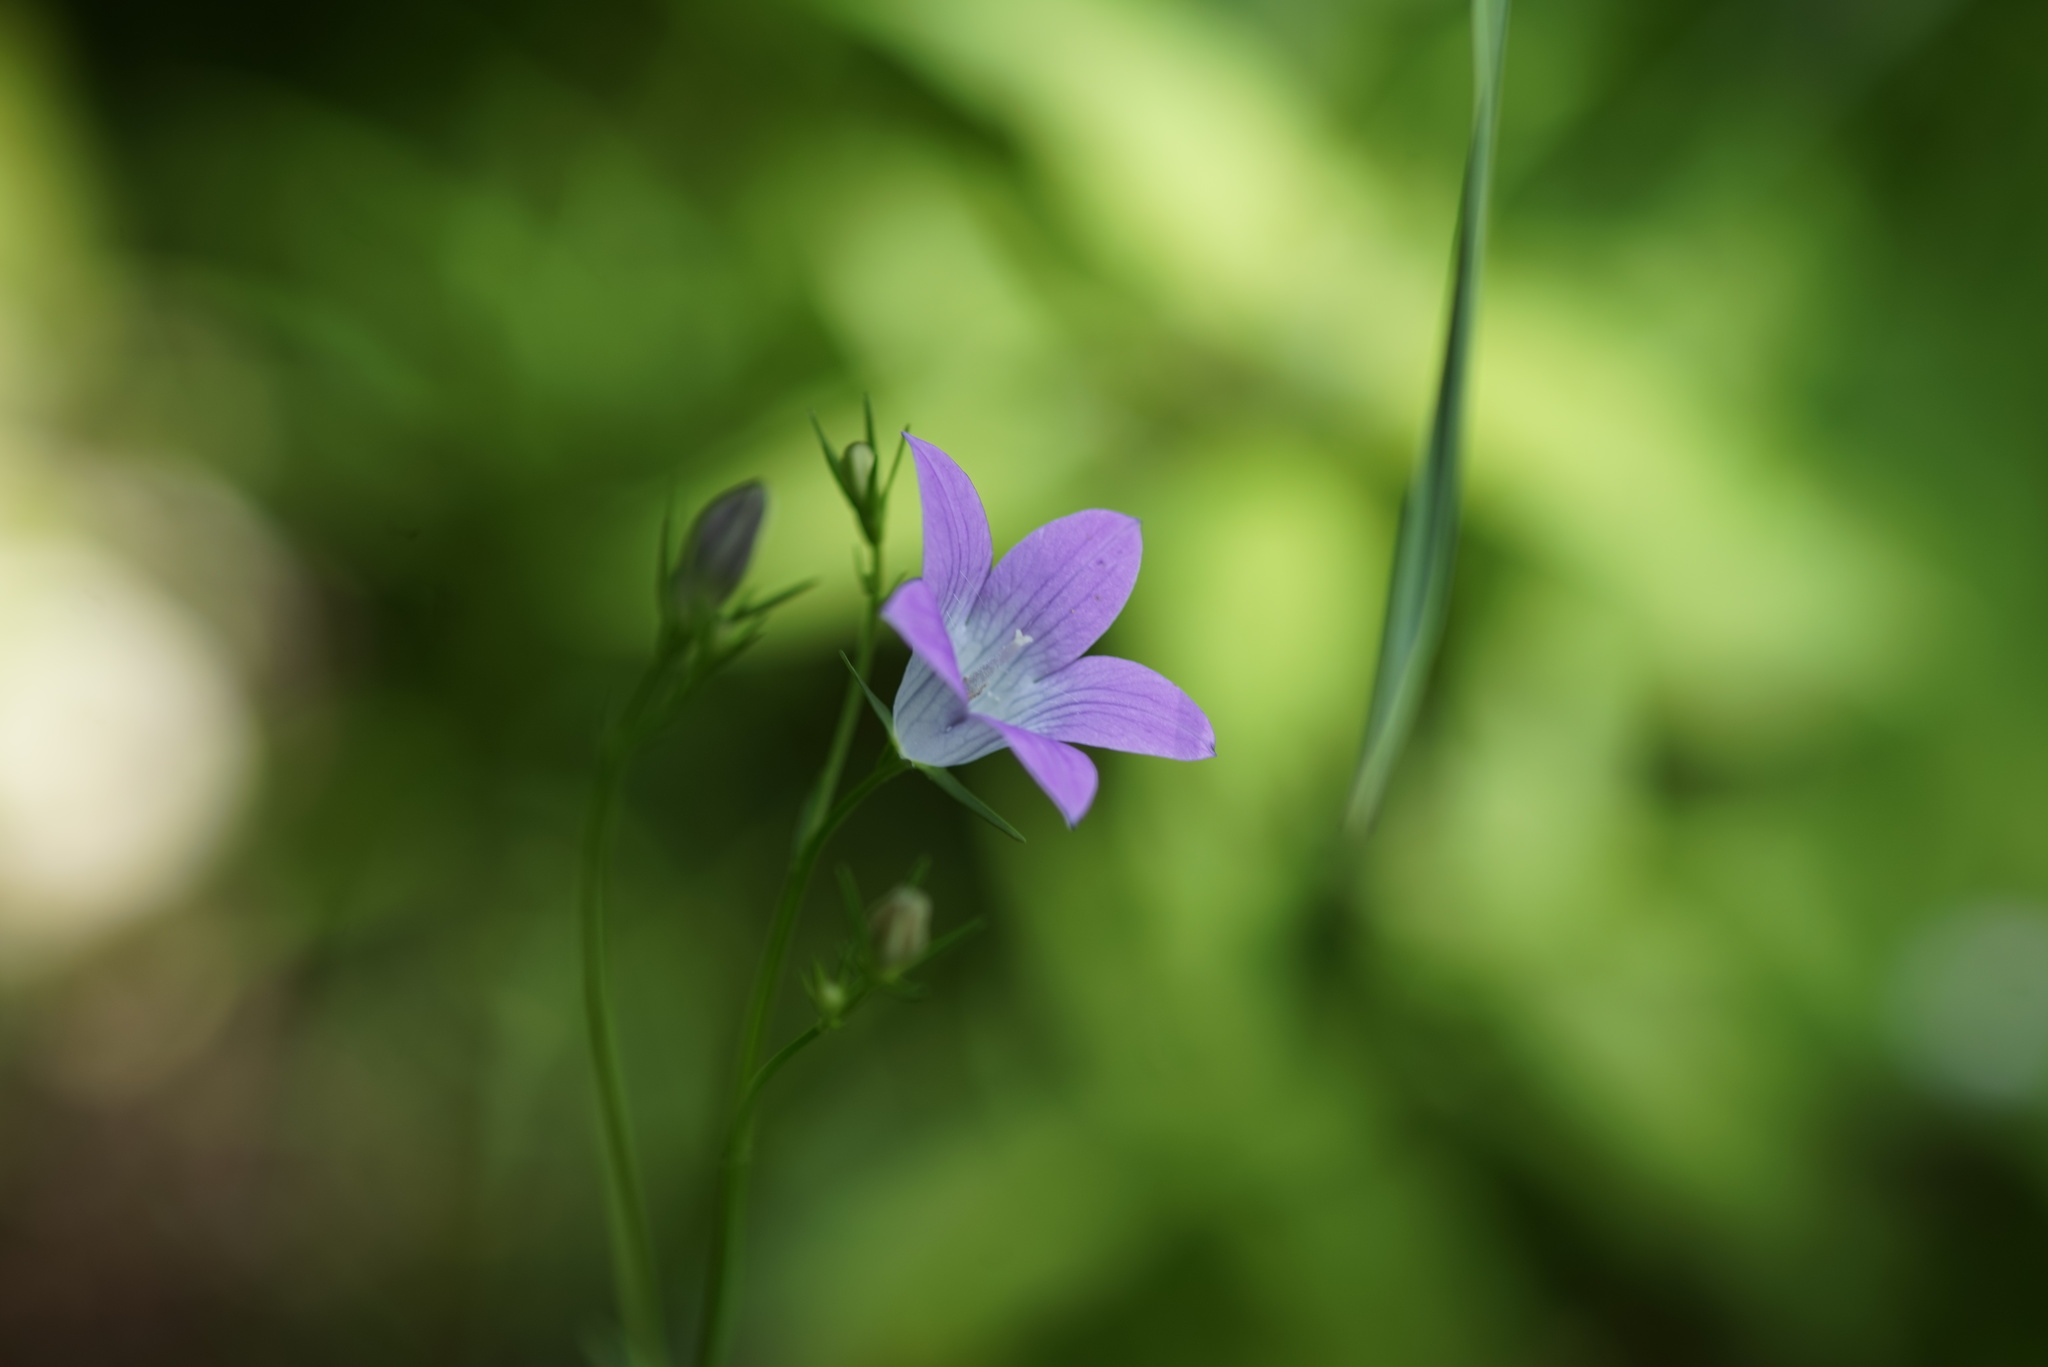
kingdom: Plantae
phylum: Tracheophyta
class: Magnoliopsida
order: Asterales
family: Campanulaceae
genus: Campanula
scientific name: Campanula patula
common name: Spreading bellflower
